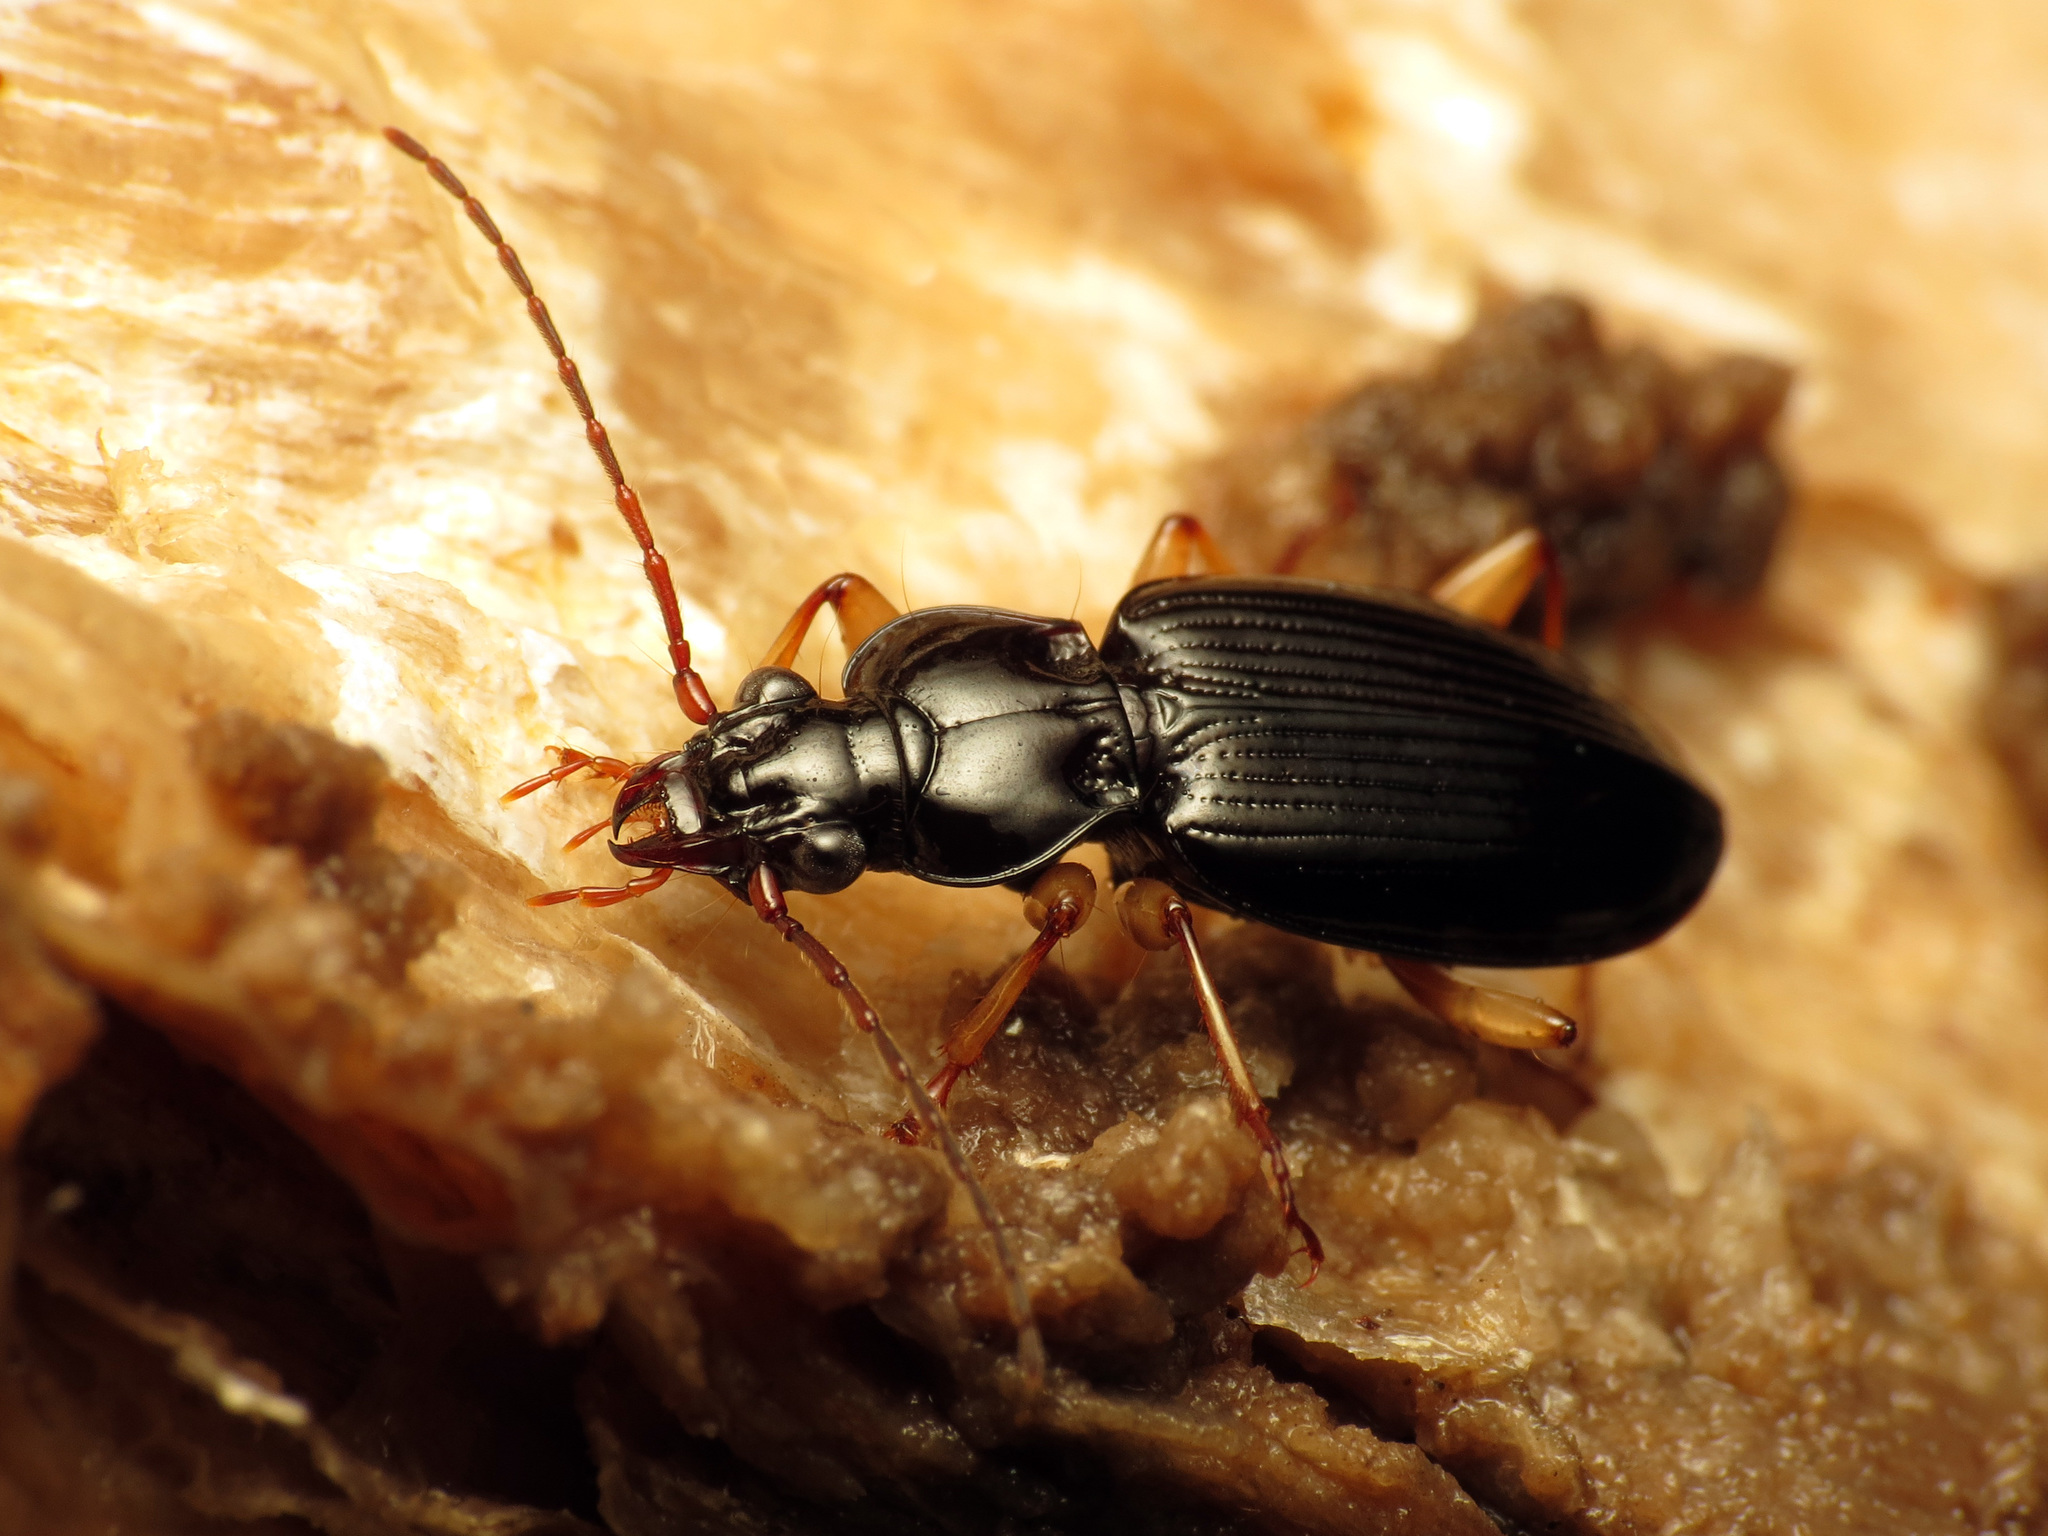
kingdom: Animalia
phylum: Arthropoda
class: Insecta
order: Coleoptera
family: Carabidae
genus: Patrobus
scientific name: Patrobus longicornis
